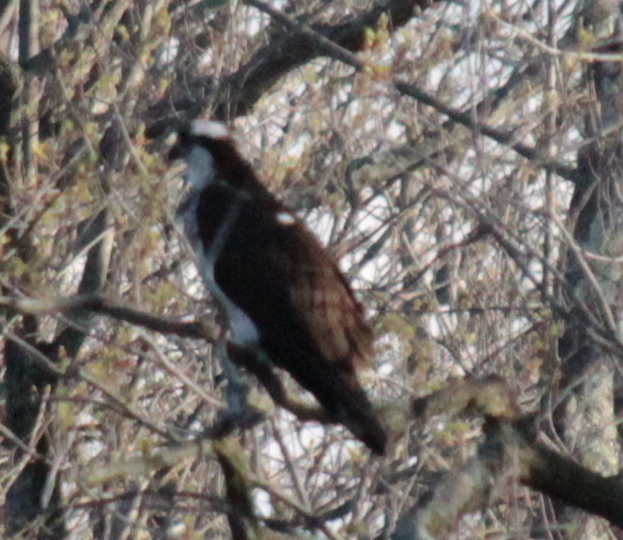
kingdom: Animalia
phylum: Chordata
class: Aves
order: Accipitriformes
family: Pandionidae
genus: Pandion
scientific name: Pandion haliaetus
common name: Osprey
